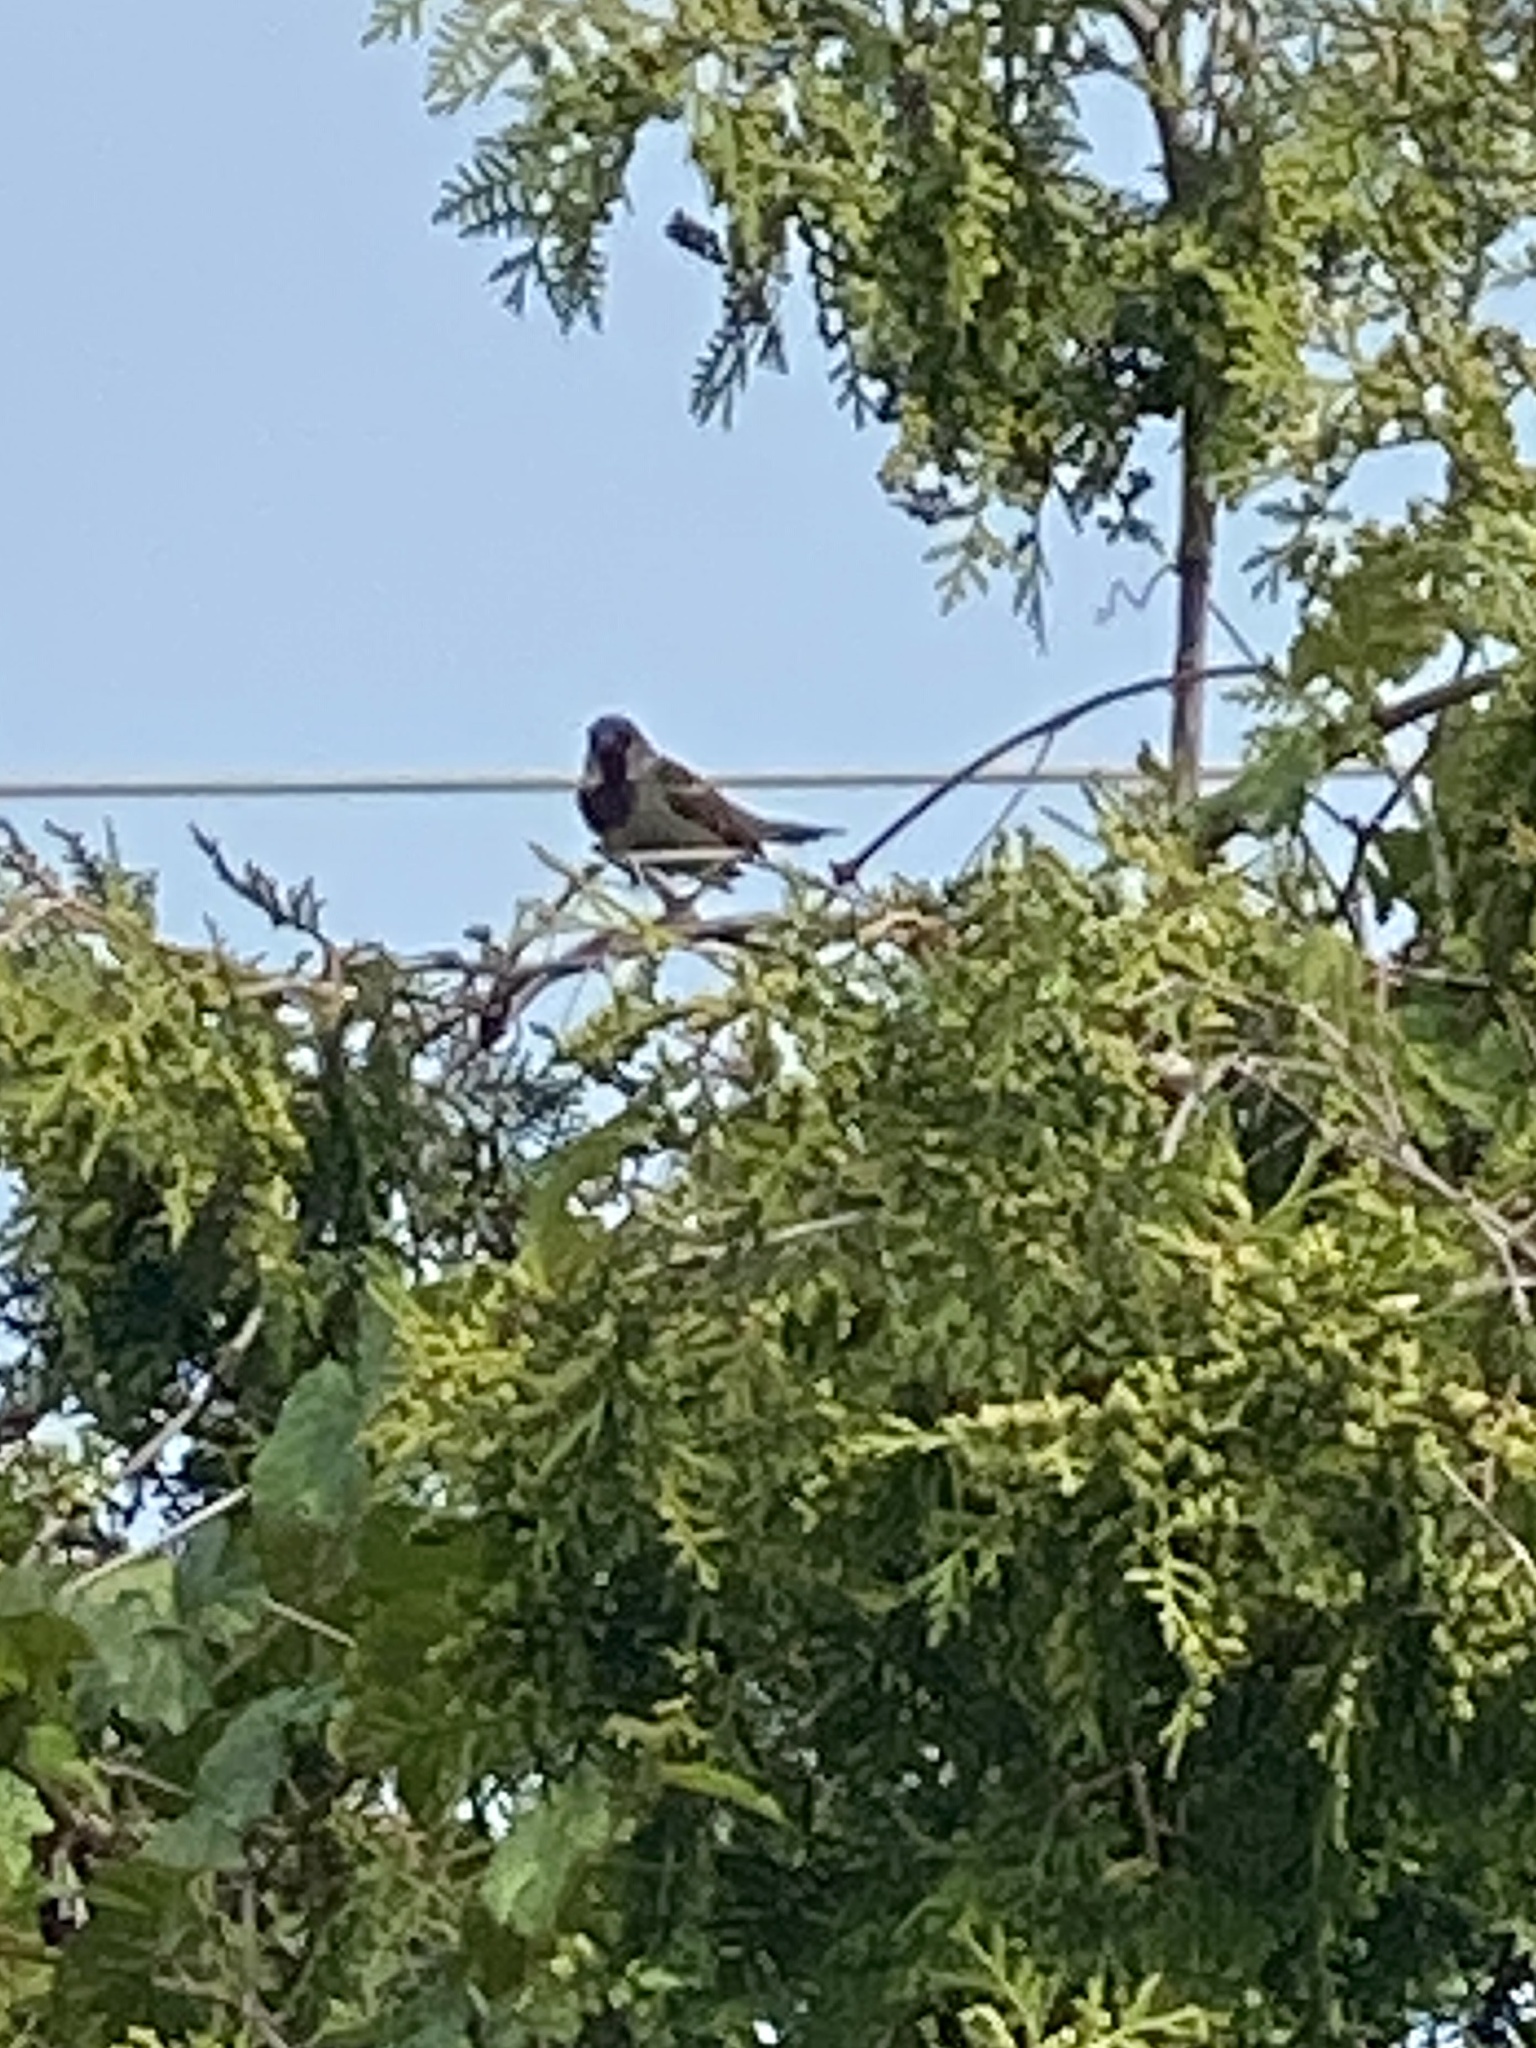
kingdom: Animalia
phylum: Chordata
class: Aves
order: Passeriformes
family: Passeridae
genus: Passer
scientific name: Passer domesticus
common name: House sparrow
